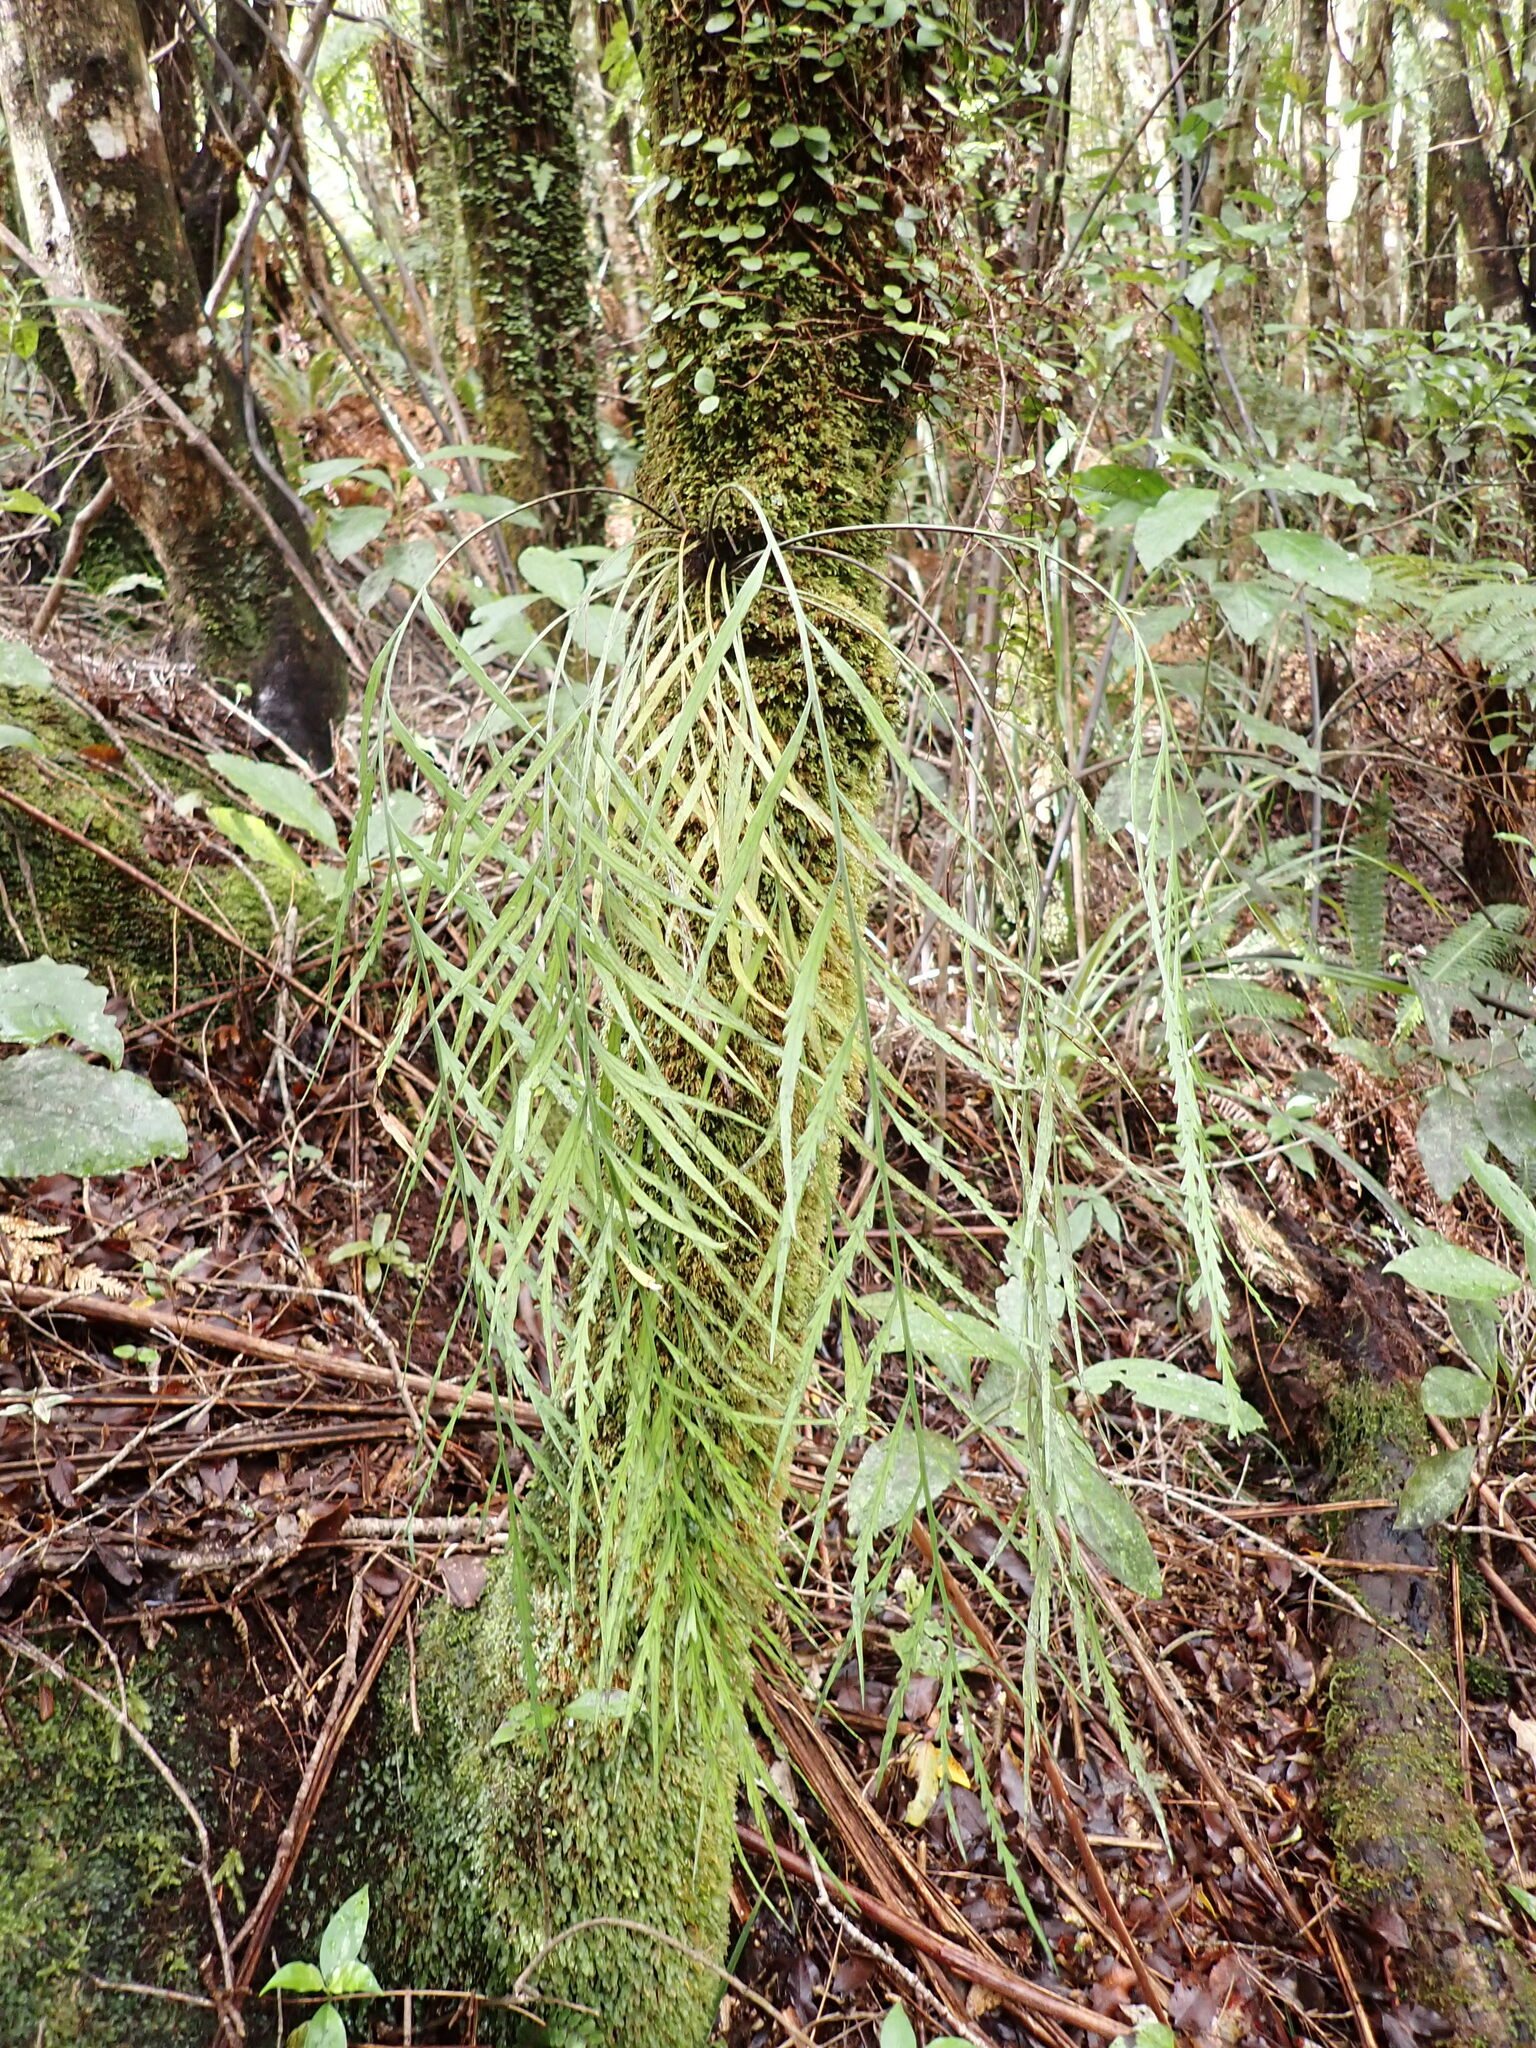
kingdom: Plantae
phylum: Tracheophyta
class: Polypodiopsida
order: Polypodiales
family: Aspleniaceae
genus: Asplenium
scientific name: Asplenium flaccidum
